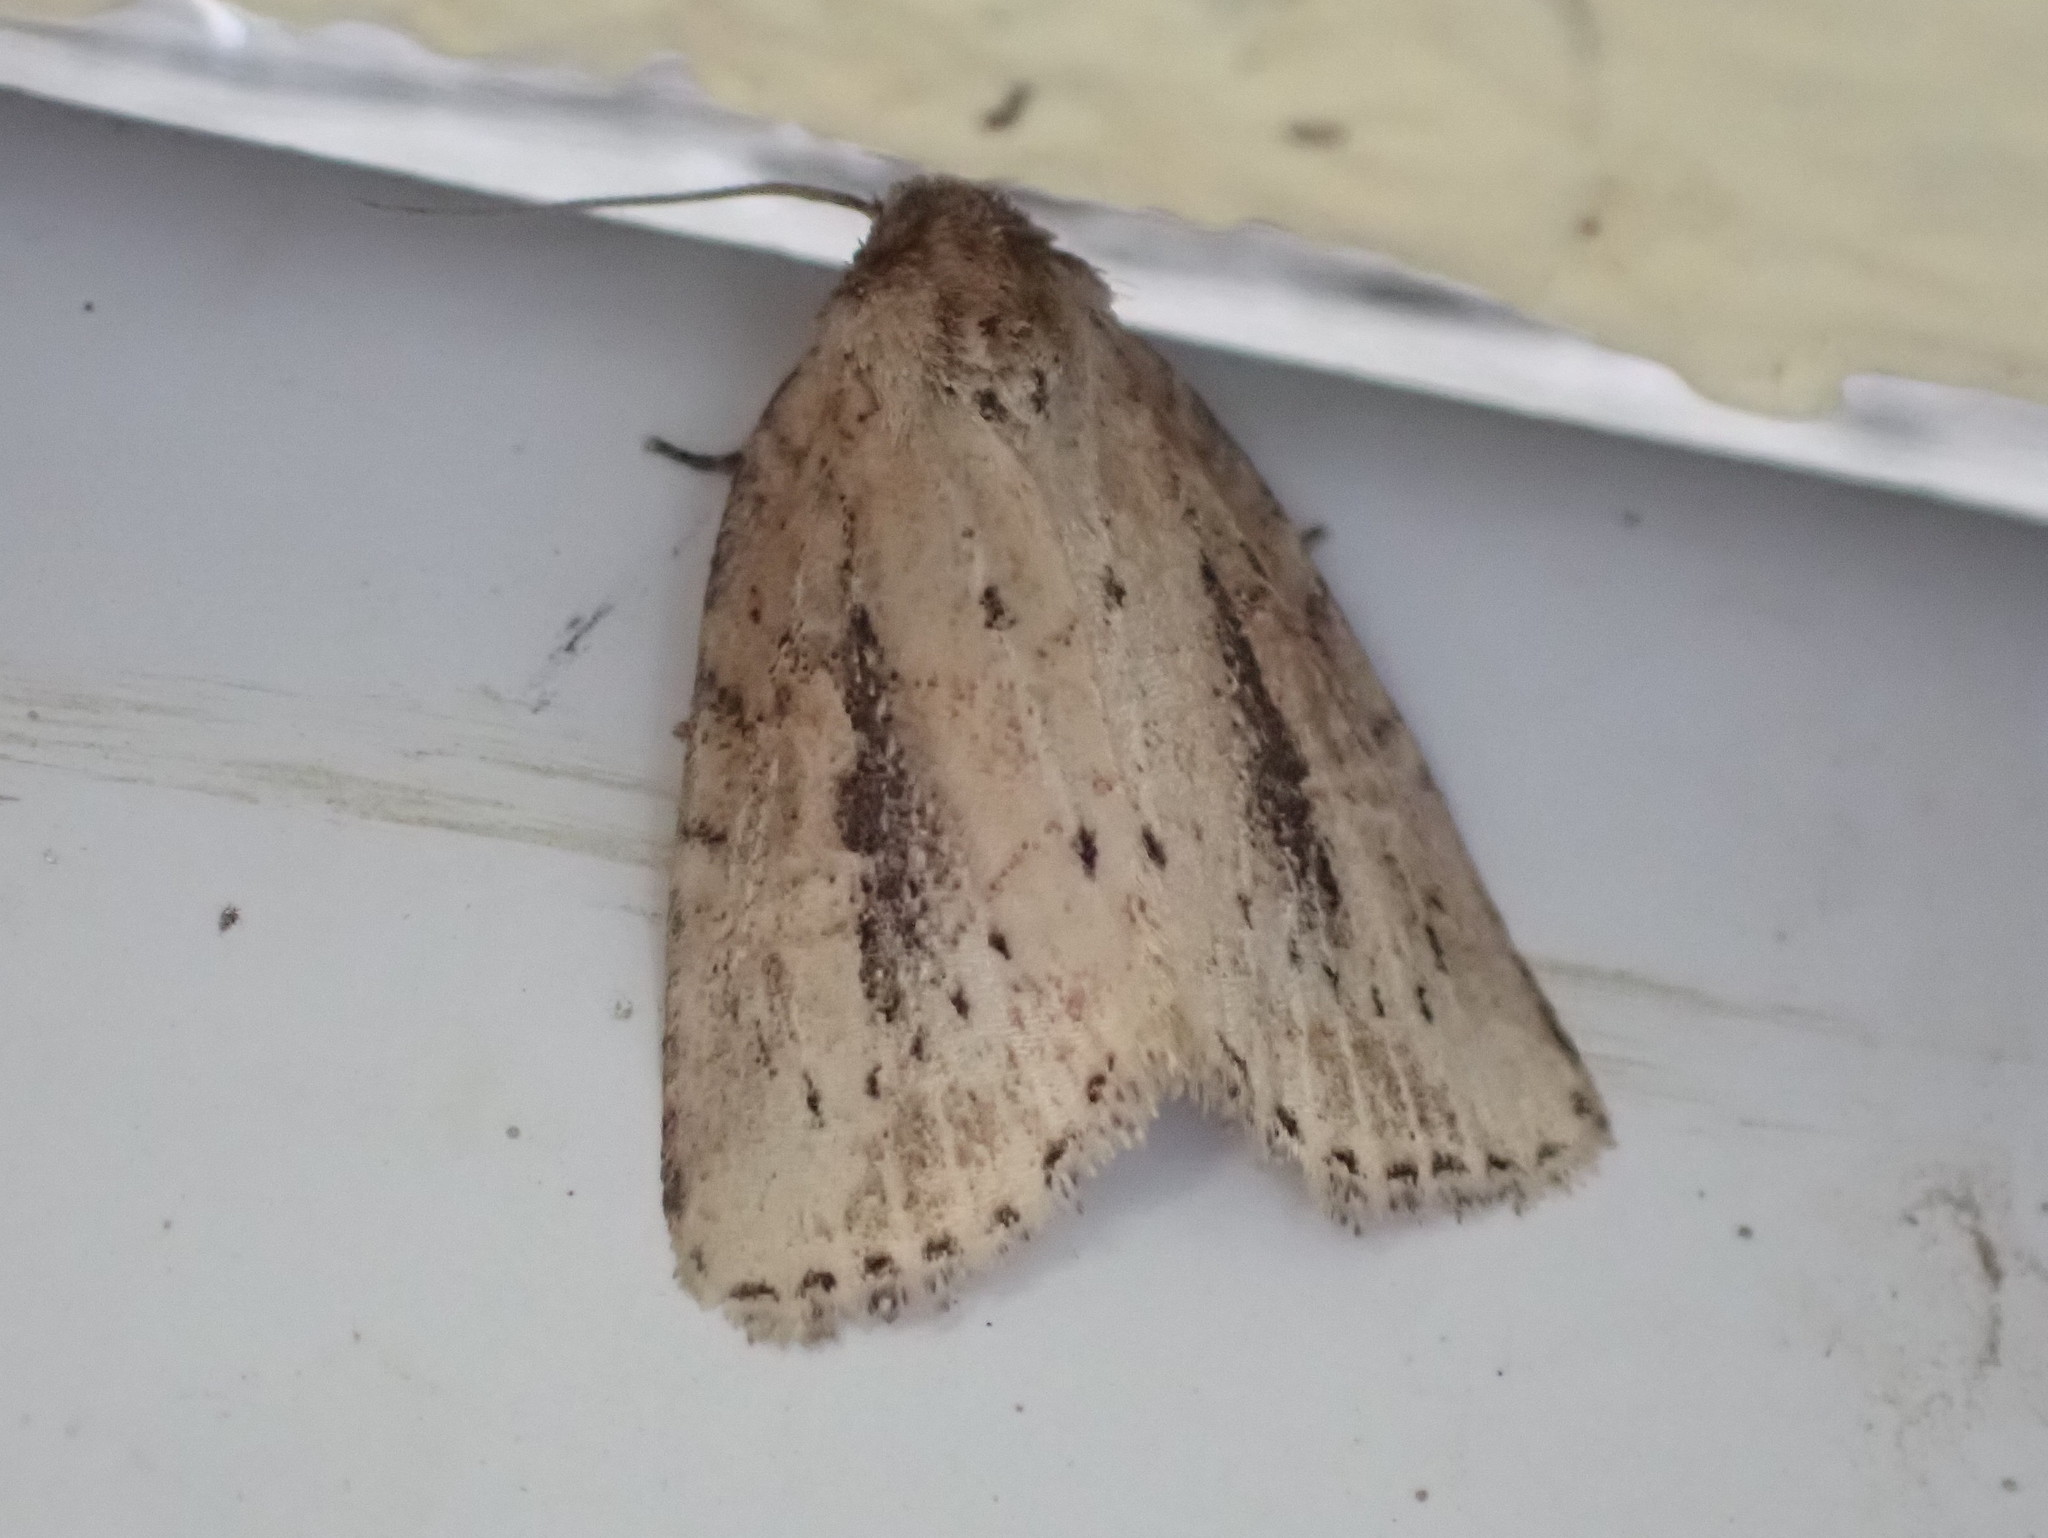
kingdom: Animalia
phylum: Arthropoda
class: Insecta
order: Lepidoptera
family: Noctuidae
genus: Photedes
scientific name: Photedes panatela
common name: Northern cordgrass borer moth
